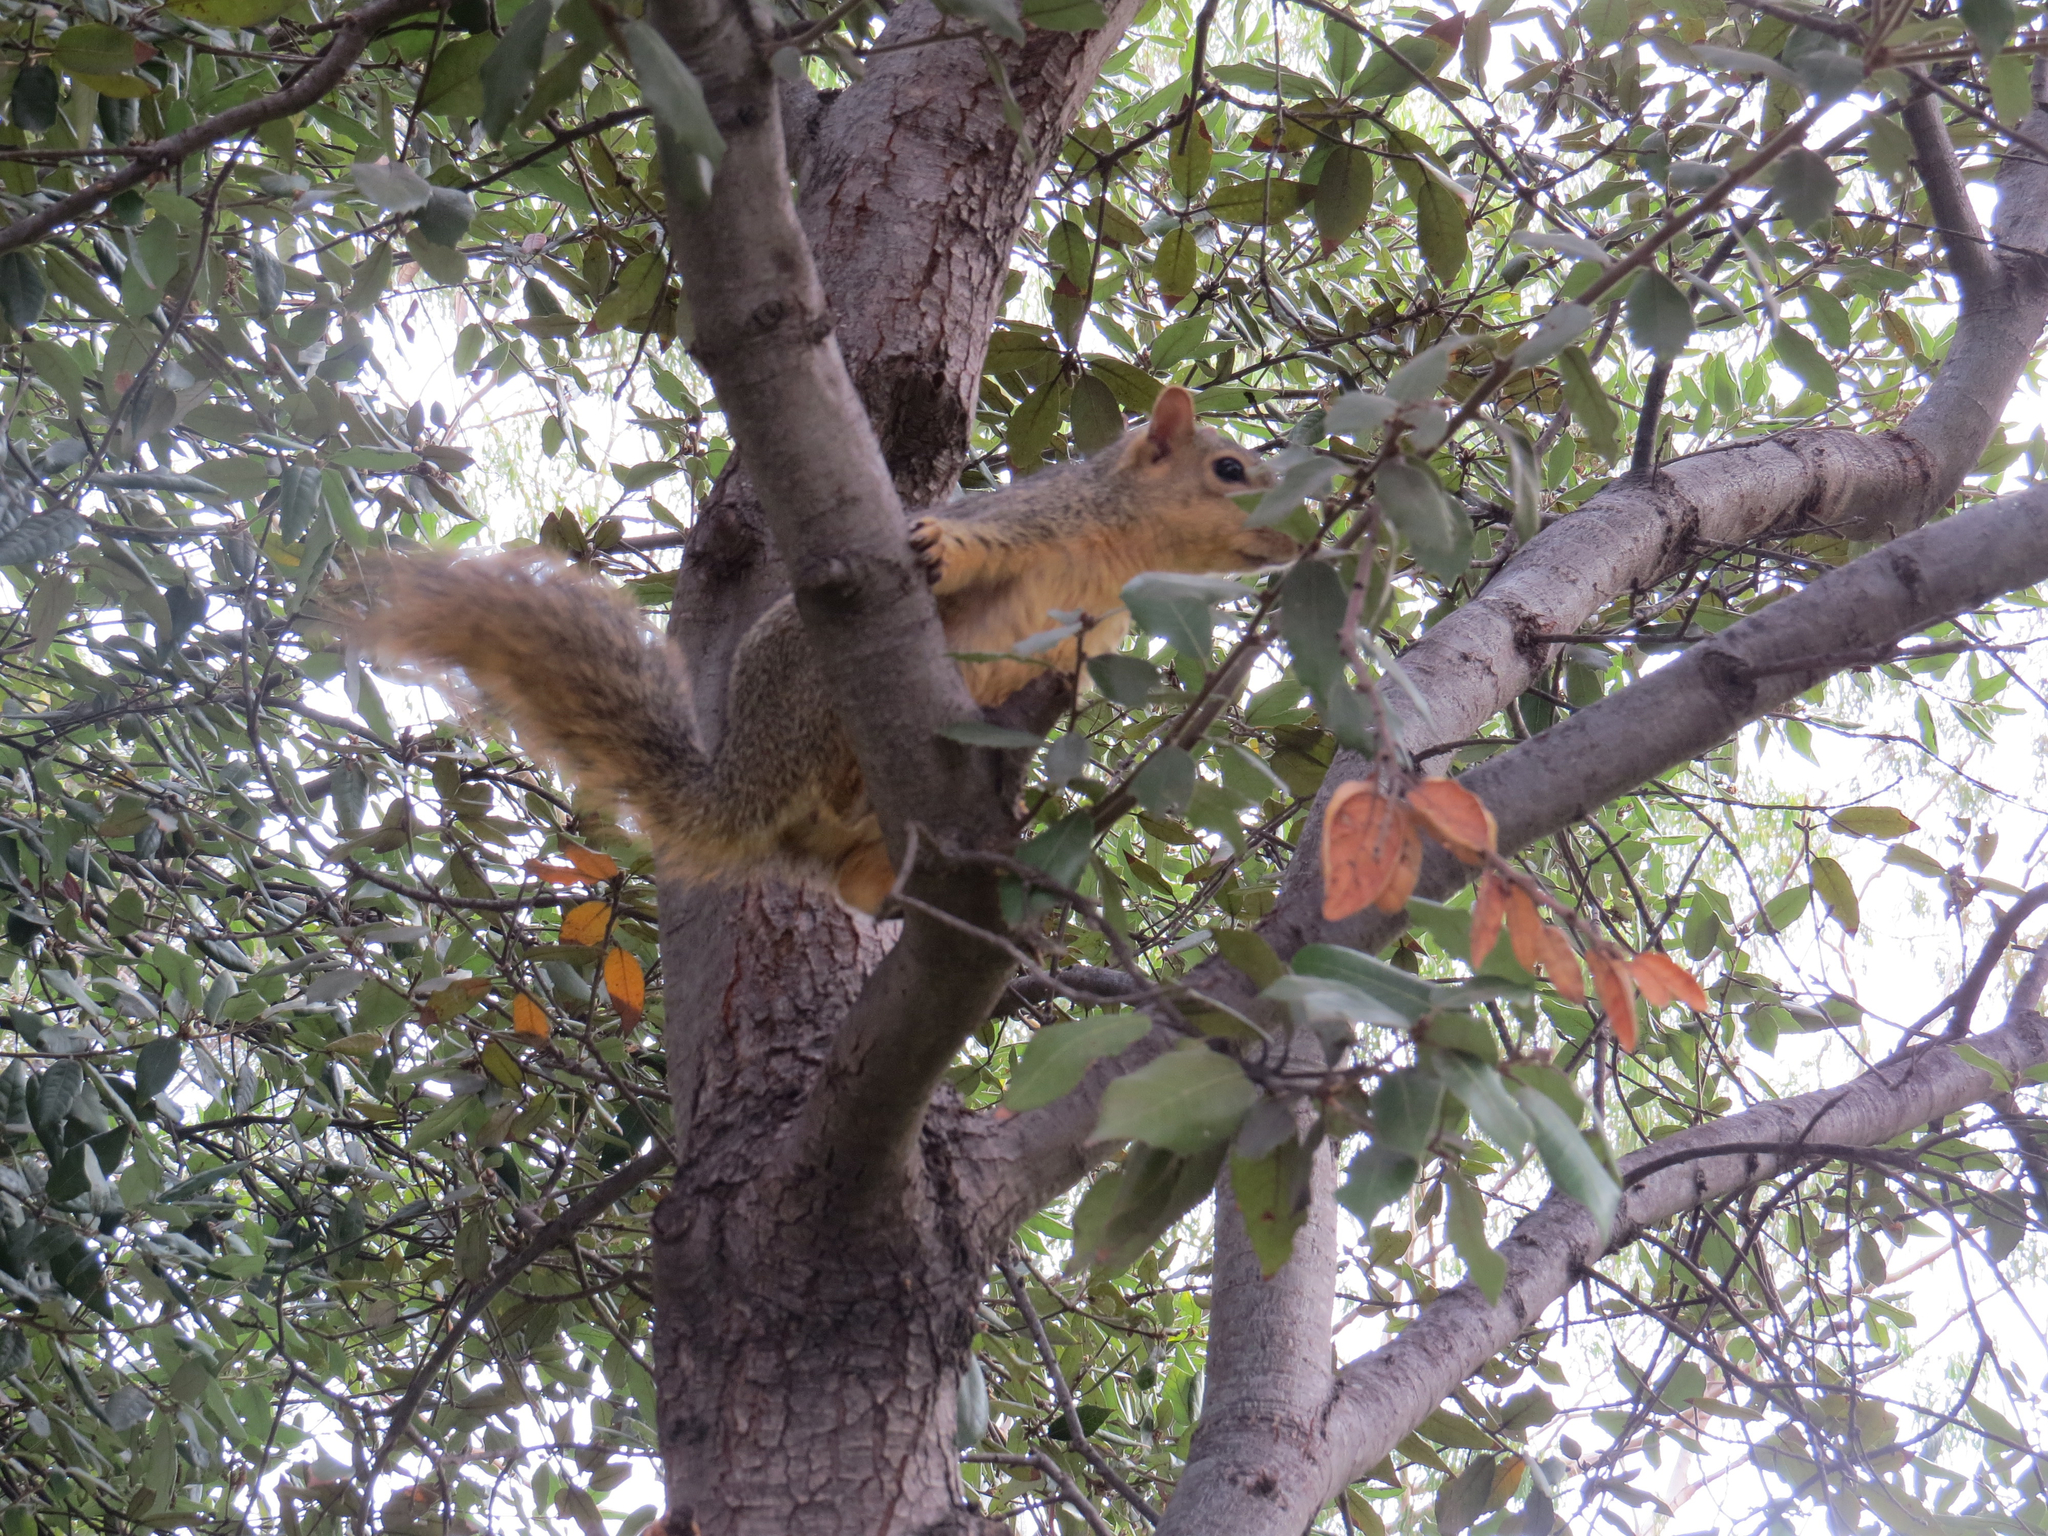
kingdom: Animalia
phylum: Chordata
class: Mammalia
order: Rodentia
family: Sciuridae
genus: Sciurus
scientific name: Sciurus niger
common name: Fox squirrel
